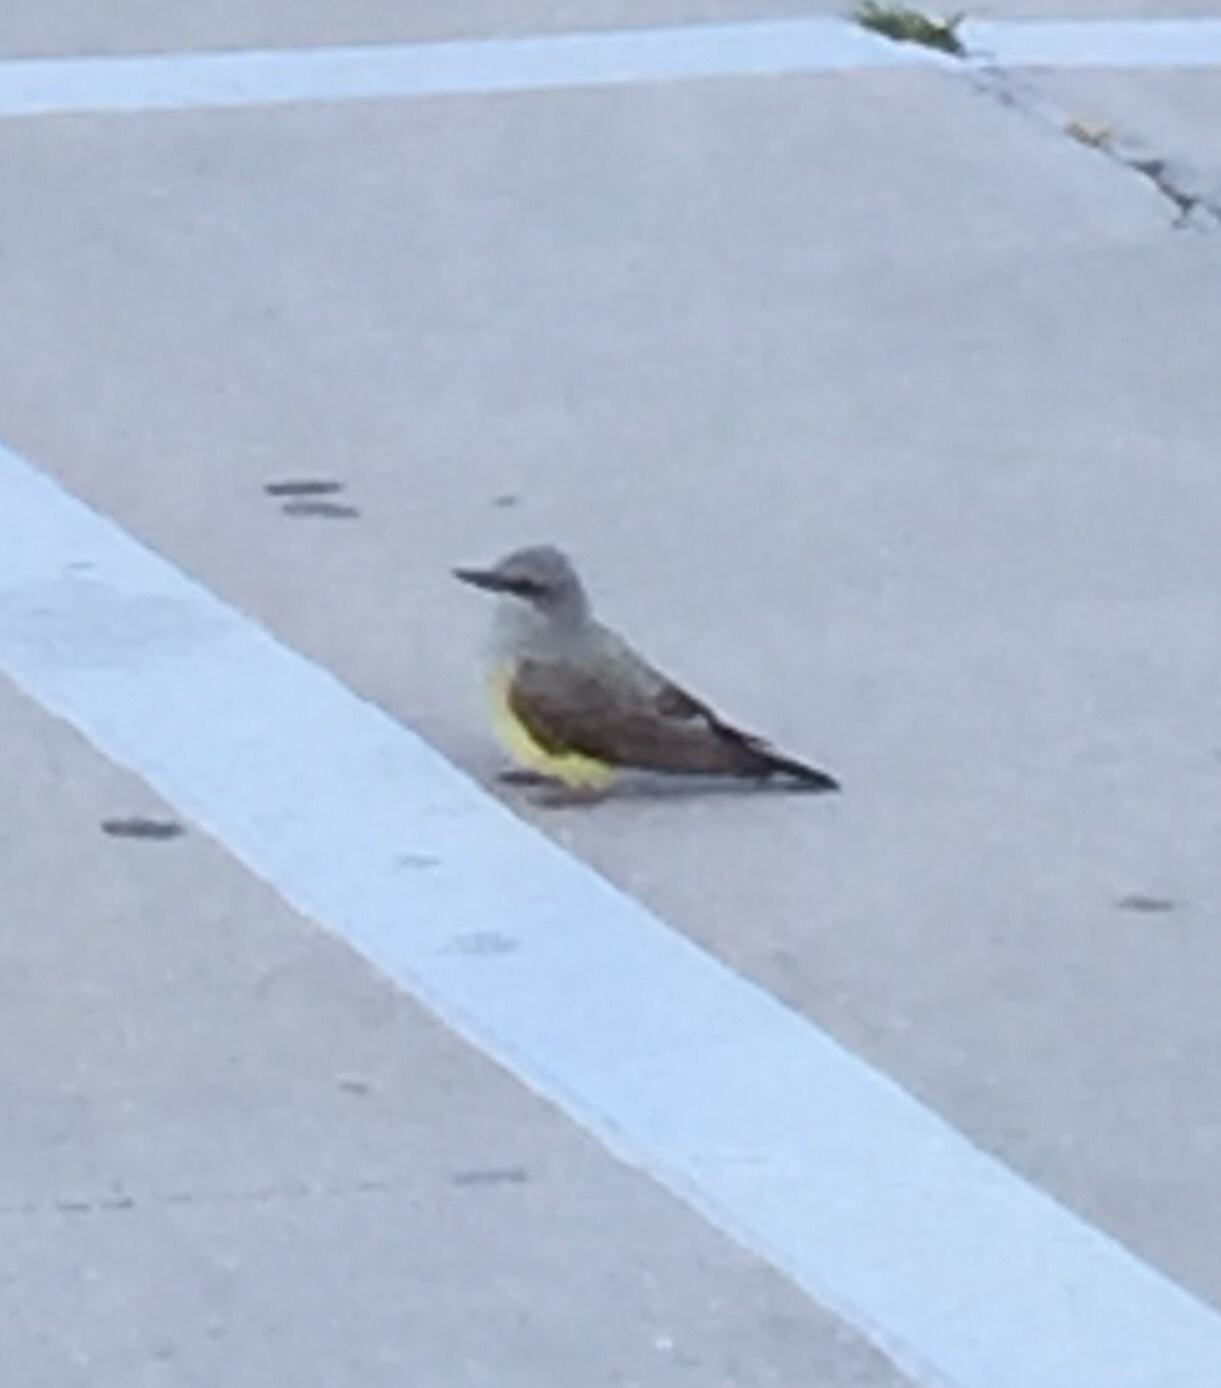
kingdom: Animalia
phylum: Chordata
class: Aves
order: Passeriformes
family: Tyrannidae
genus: Tyrannus
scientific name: Tyrannus verticalis
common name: Western kingbird
